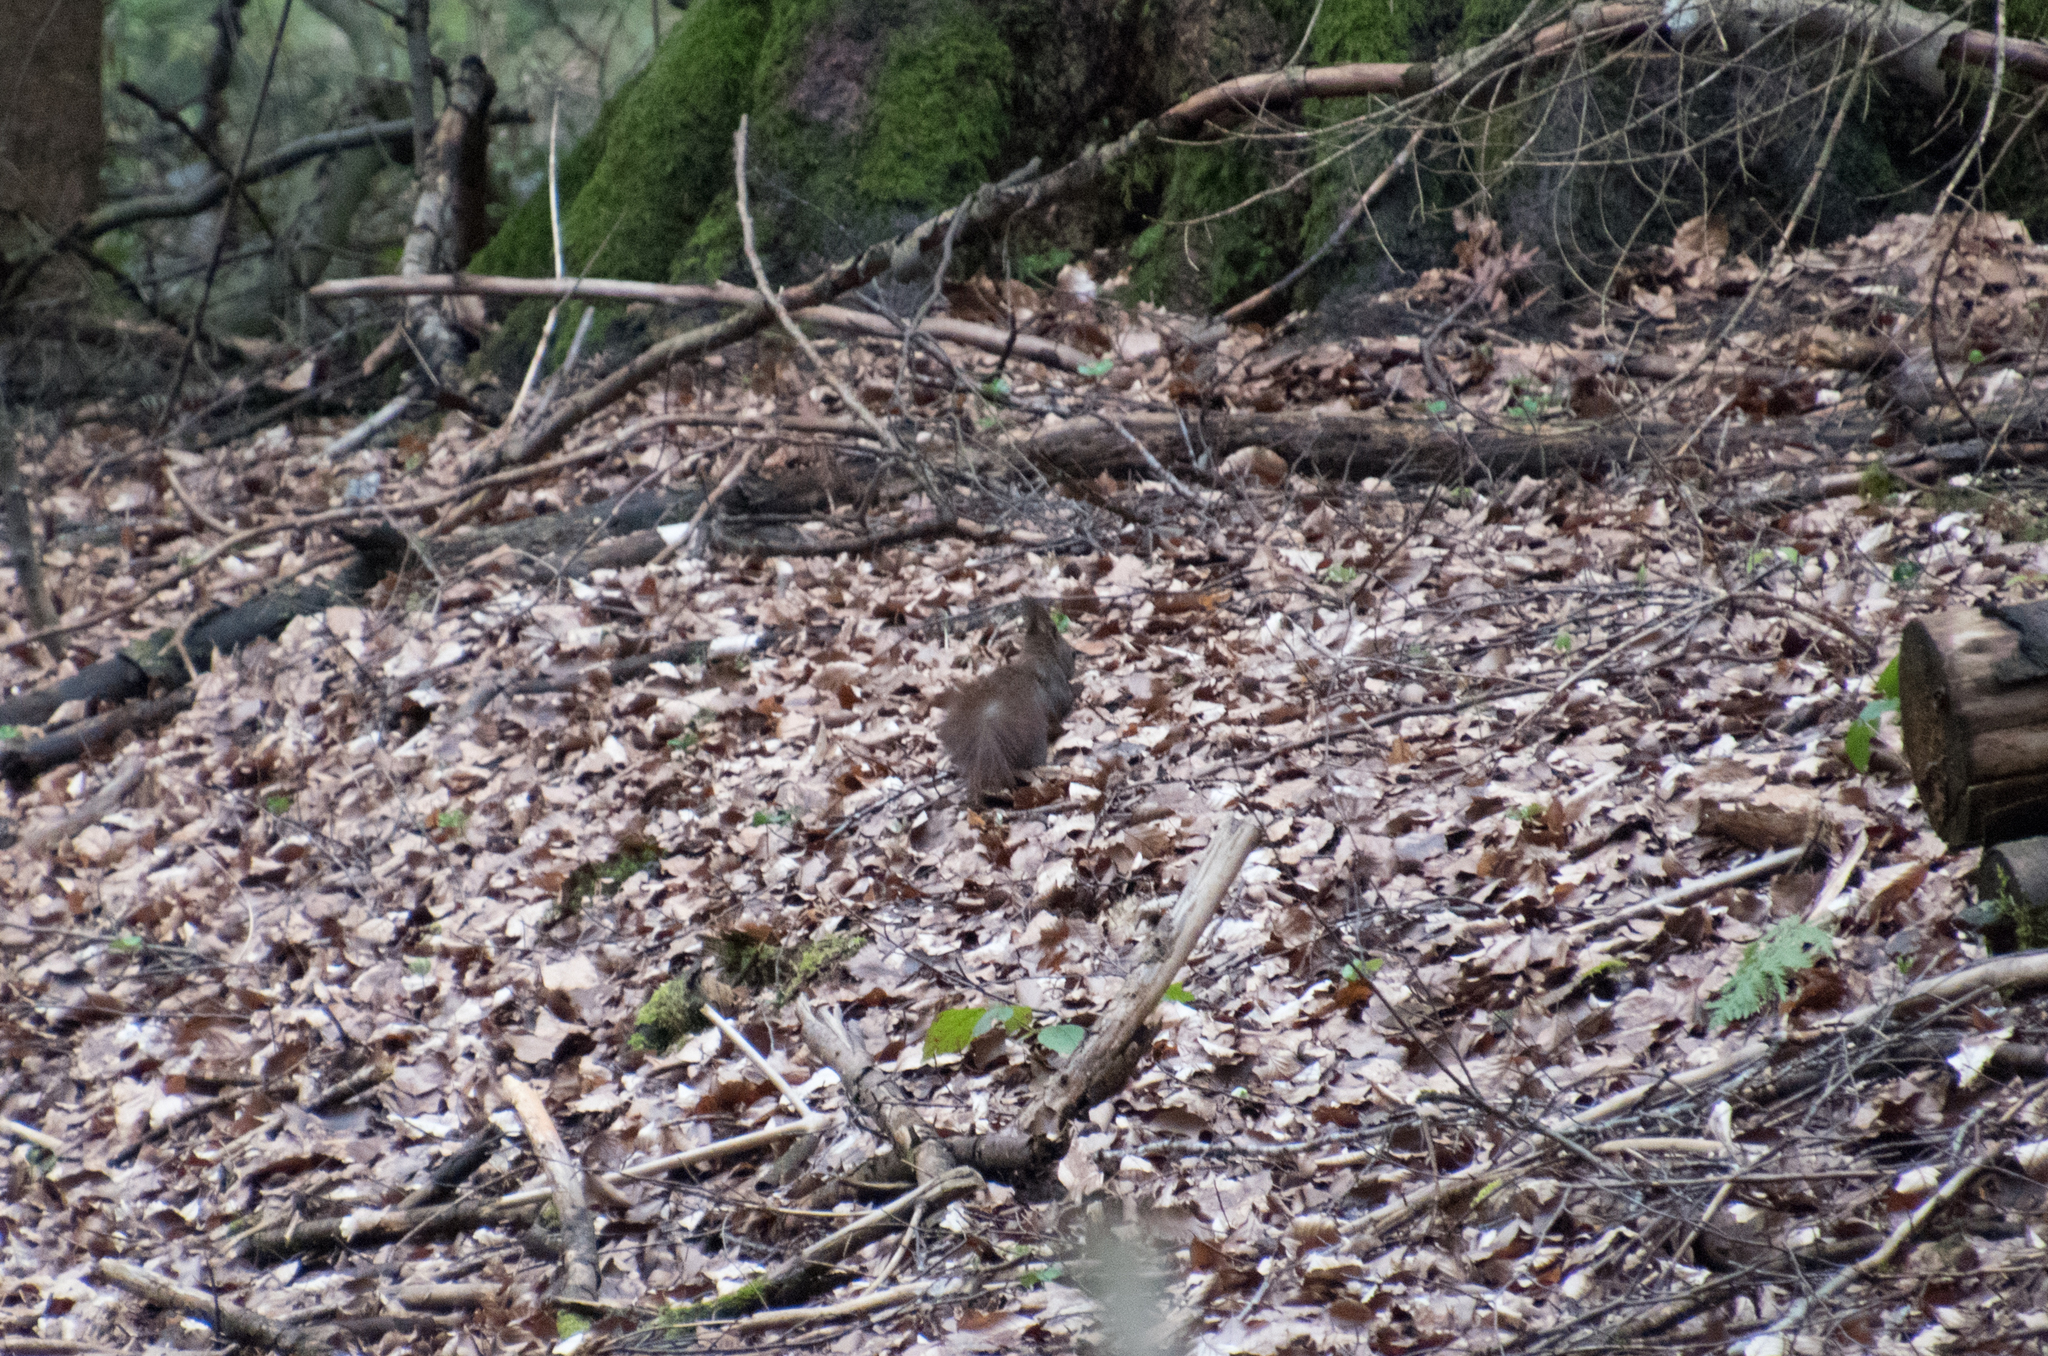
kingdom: Animalia
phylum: Chordata
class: Mammalia
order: Rodentia
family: Sciuridae
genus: Sciurus
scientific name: Sciurus vulgaris
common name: Eurasian red squirrel
